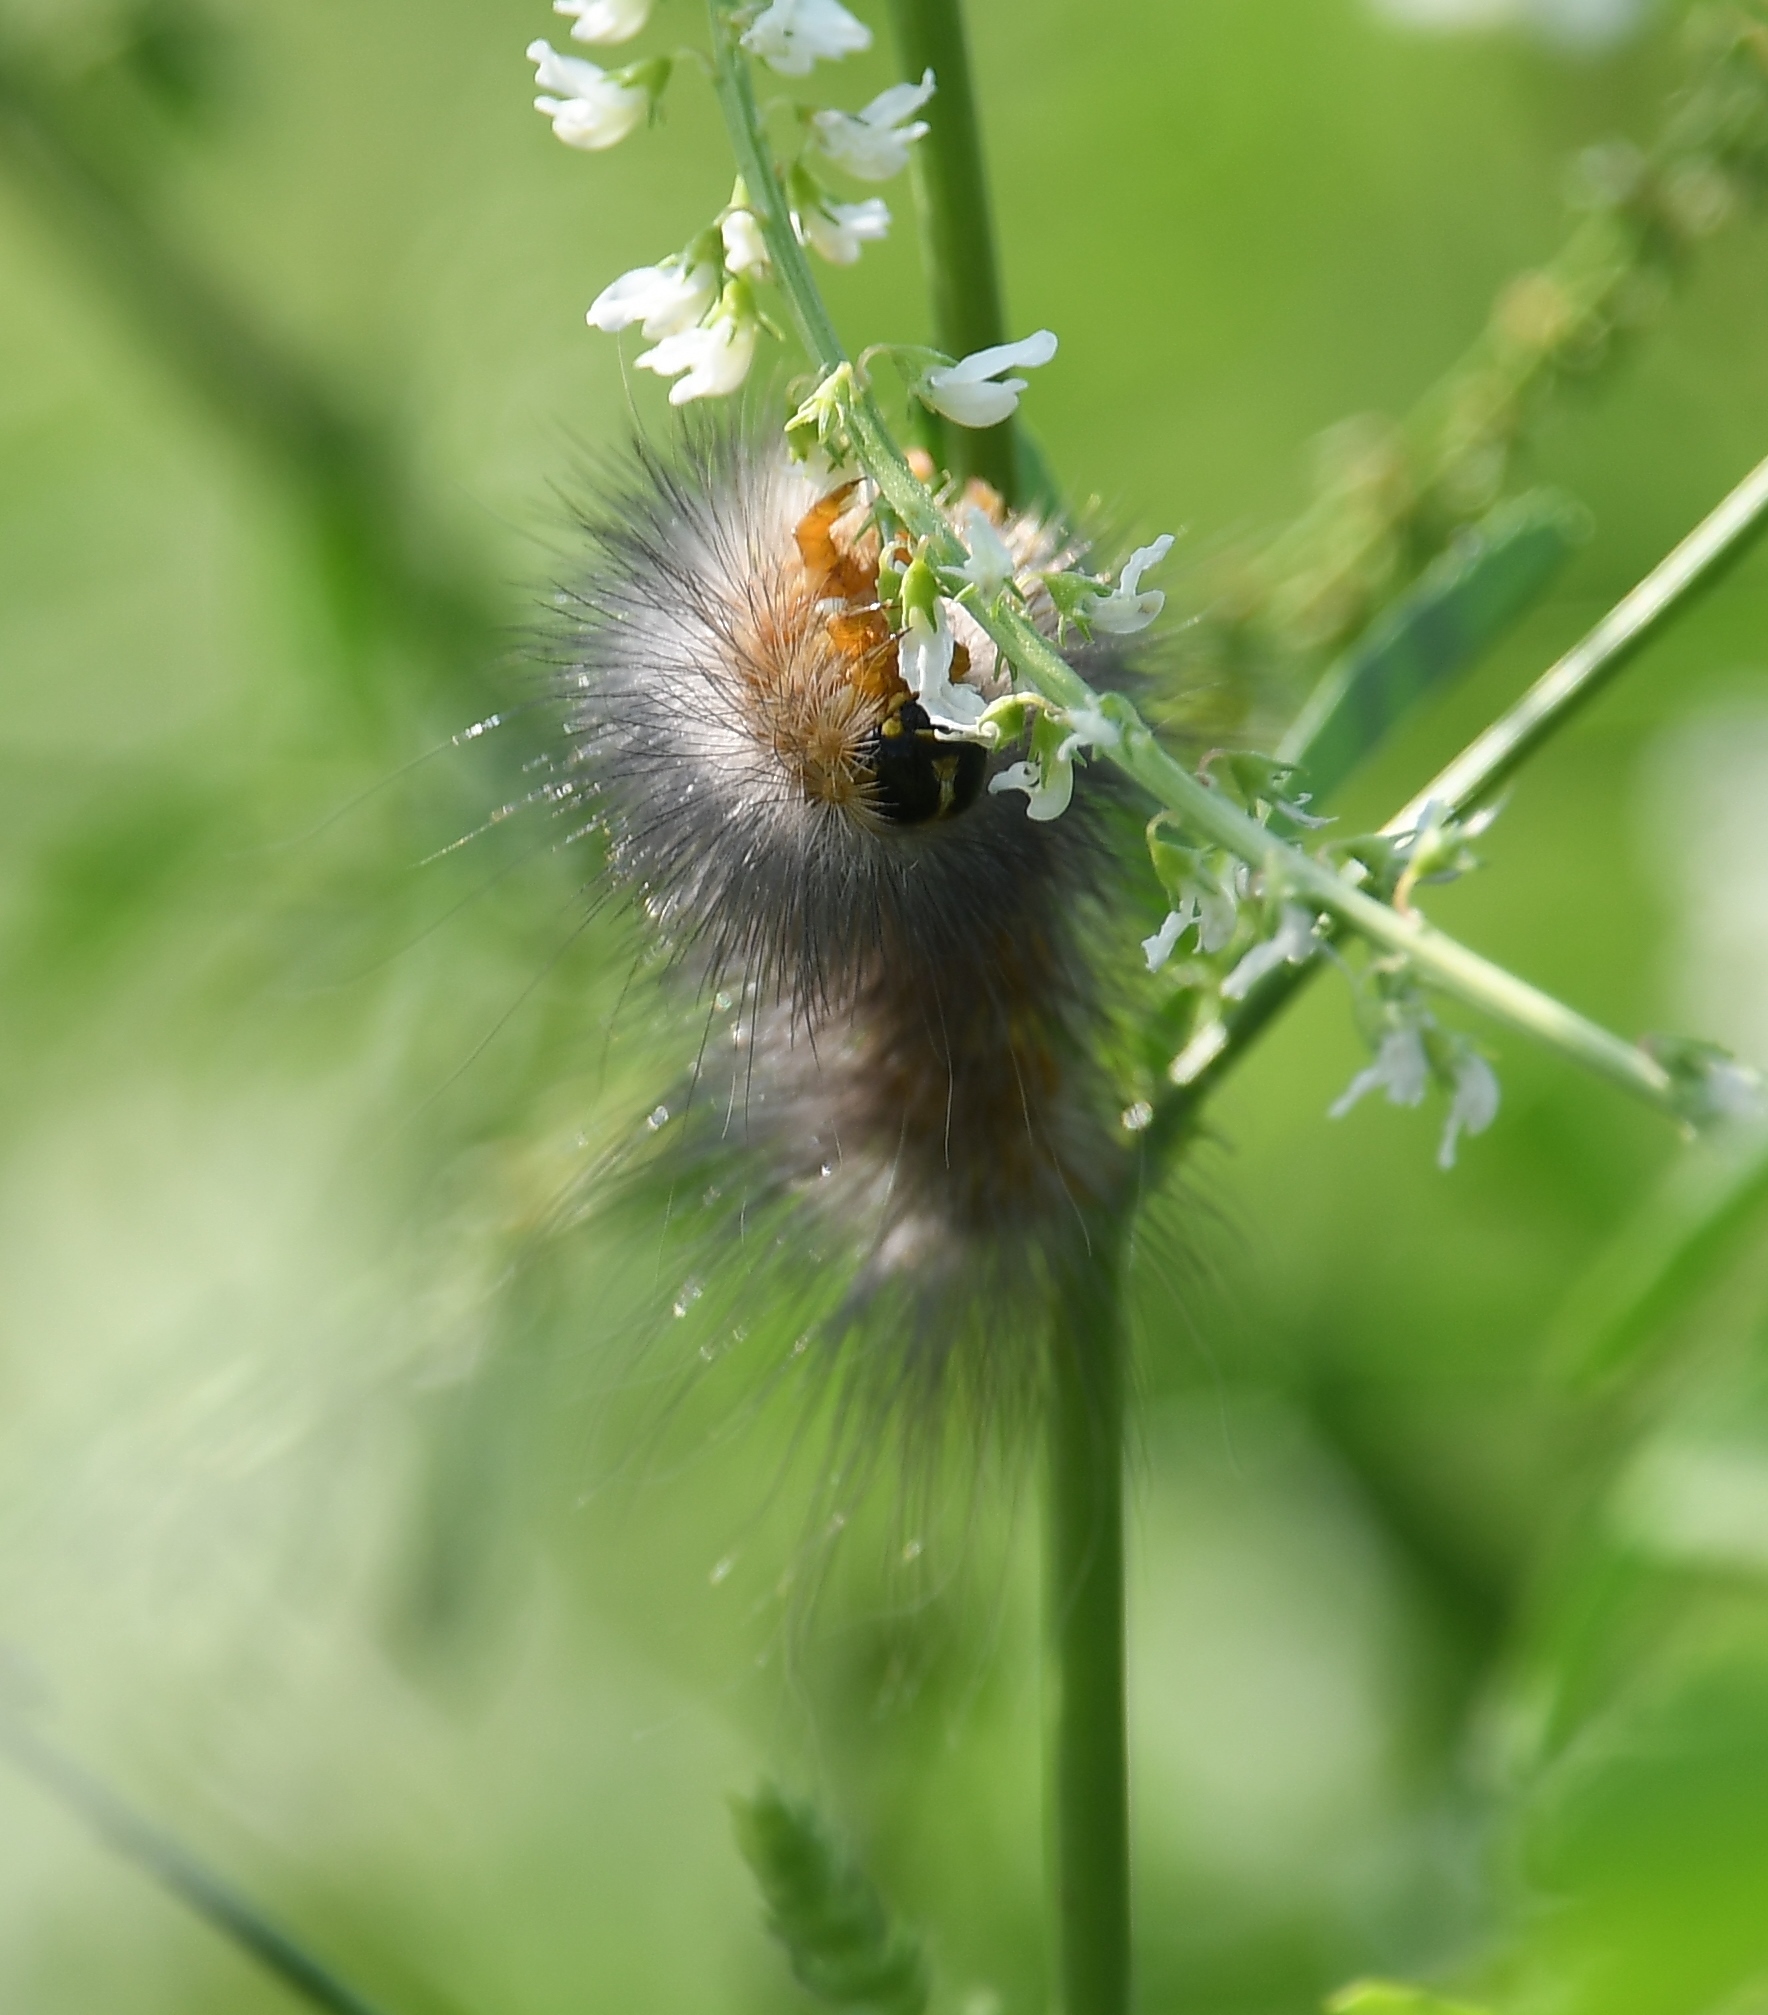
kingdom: Animalia
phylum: Arthropoda
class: Insecta
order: Lepidoptera
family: Erebidae
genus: Estigmene
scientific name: Estigmene acrea
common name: Salt marsh moth
